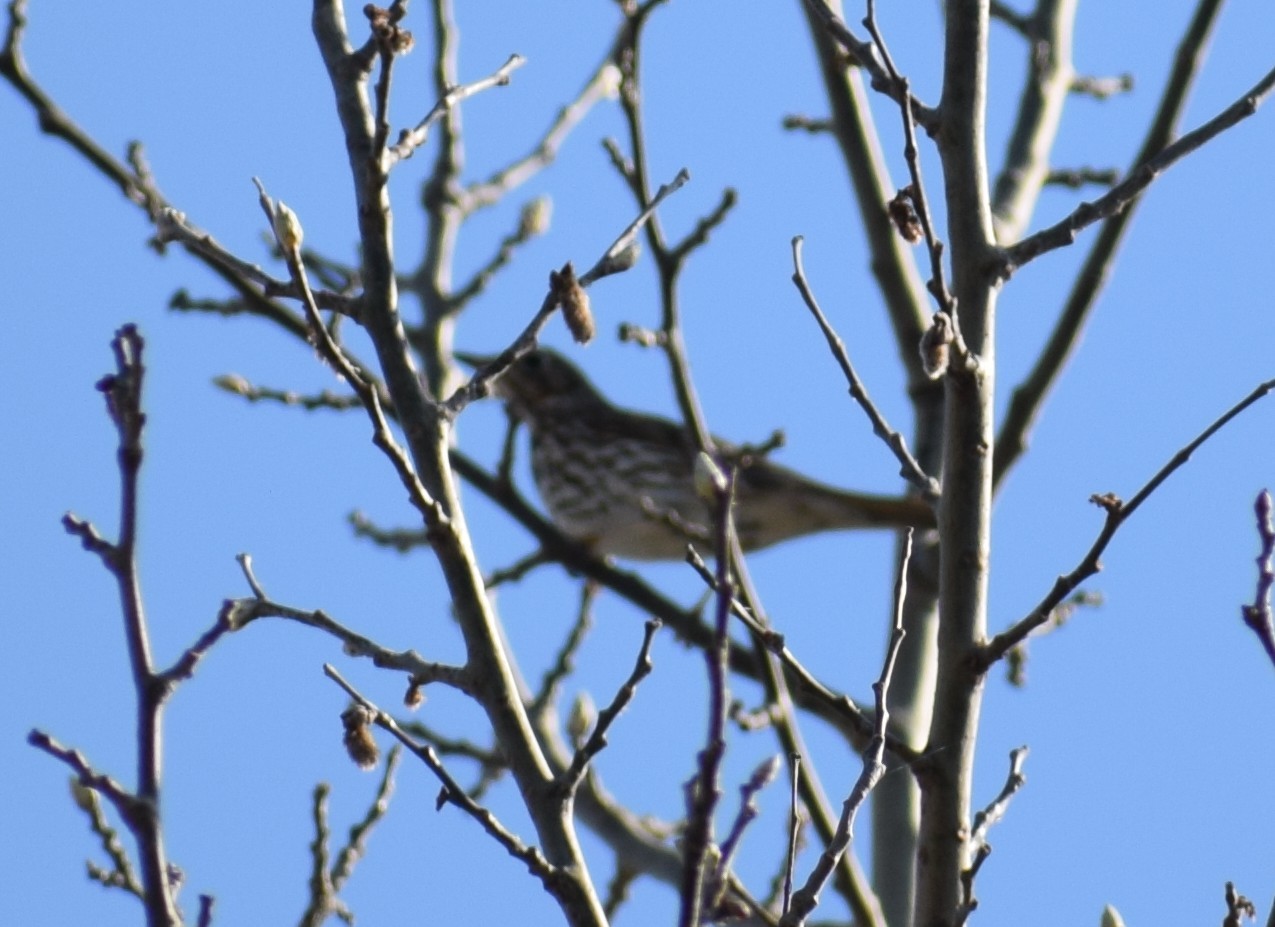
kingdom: Animalia
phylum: Chordata
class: Aves
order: Passeriformes
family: Turdidae
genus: Turdus
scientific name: Turdus viscivorus
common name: Mistle thrush
